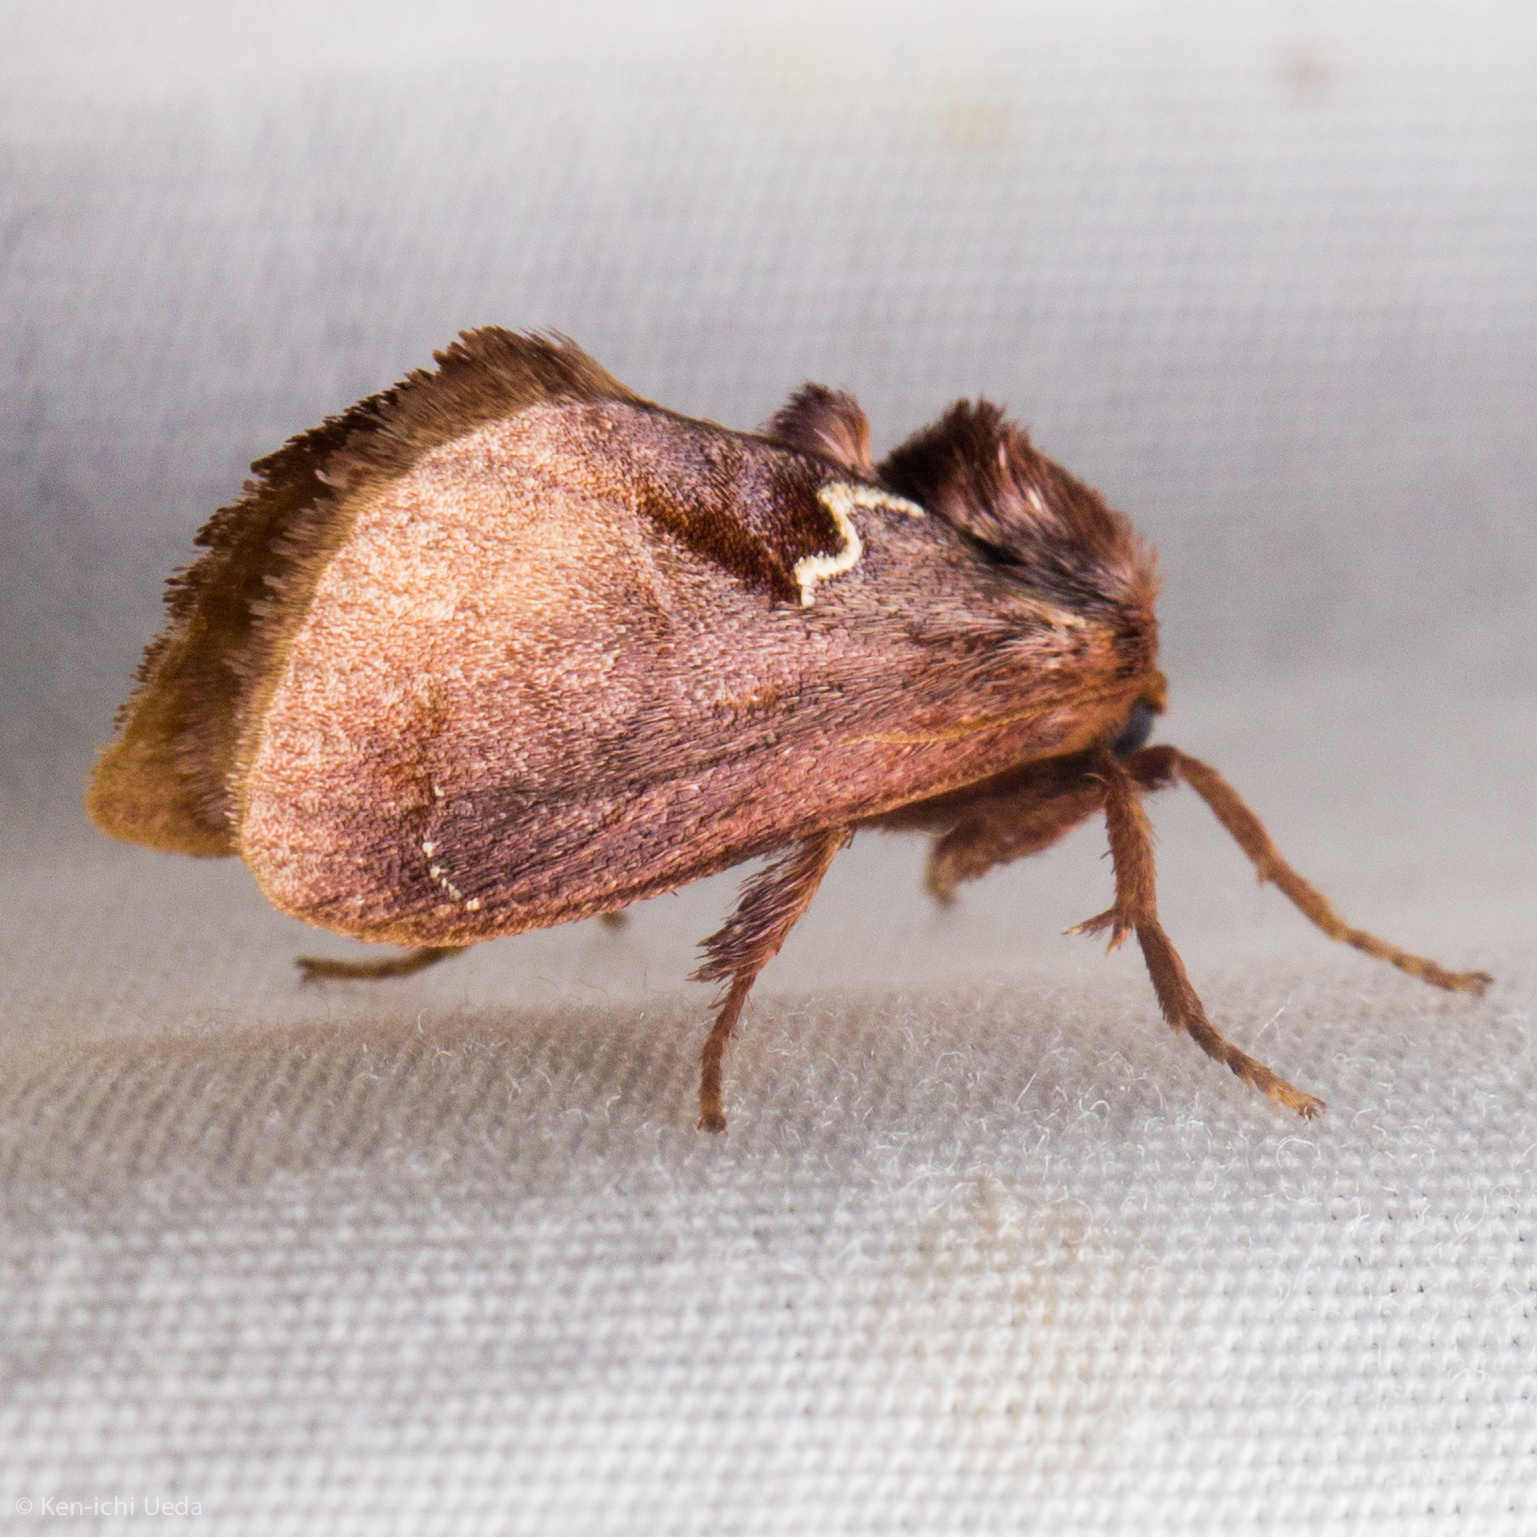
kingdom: Animalia
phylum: Arthropoda
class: Insecta
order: Lepidoptera
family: Limacodidae
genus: Euclea
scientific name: Euclea obliqua
